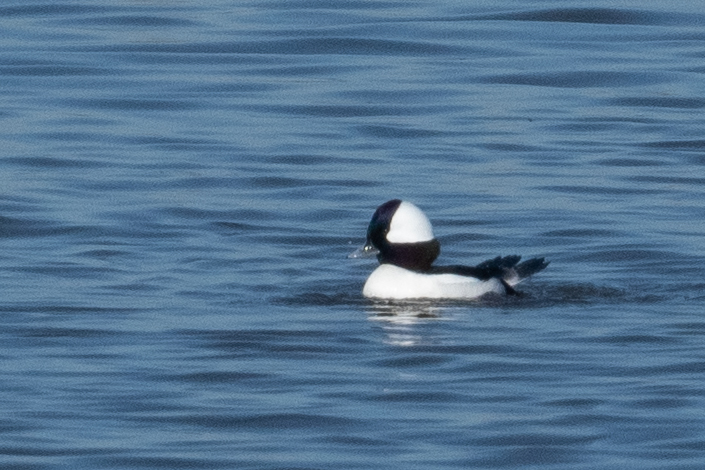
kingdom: Animalia
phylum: Chordata
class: Aves
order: Anseriformes
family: Anatidae
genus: Bucephala
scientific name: Bucephala albeola
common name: Bufflehead
